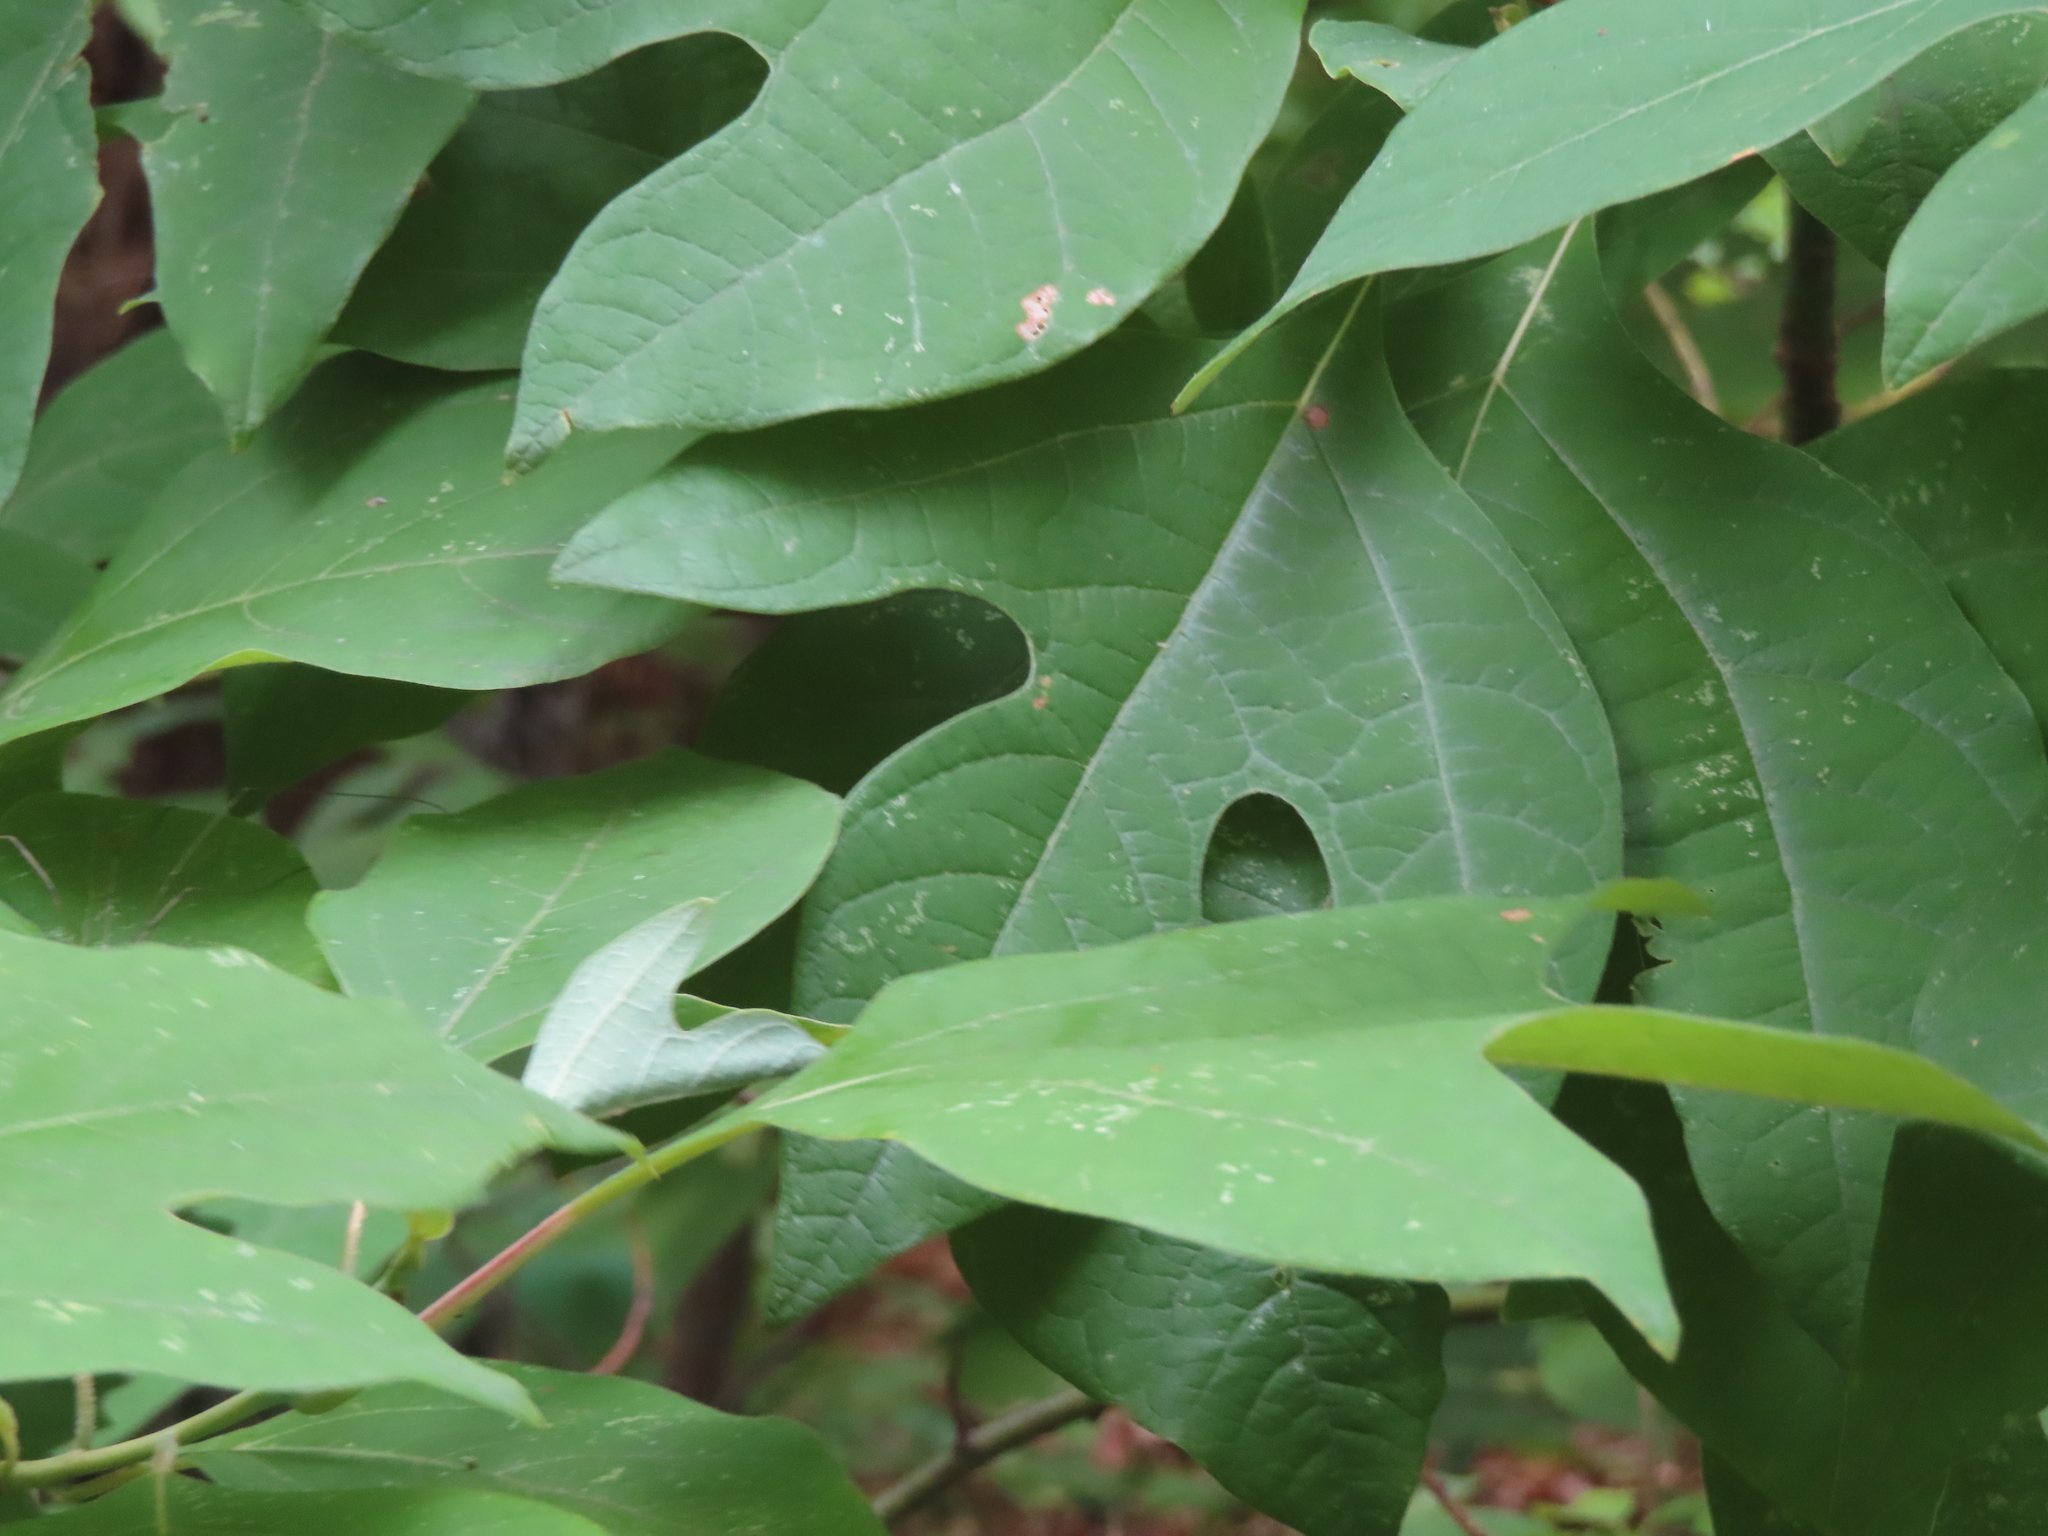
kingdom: Plantae
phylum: Tracheophyta
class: Magnoliopsida
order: Laurales
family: Lauraceae
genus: Sassafras
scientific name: Sassafras albidum
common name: Sassafras
